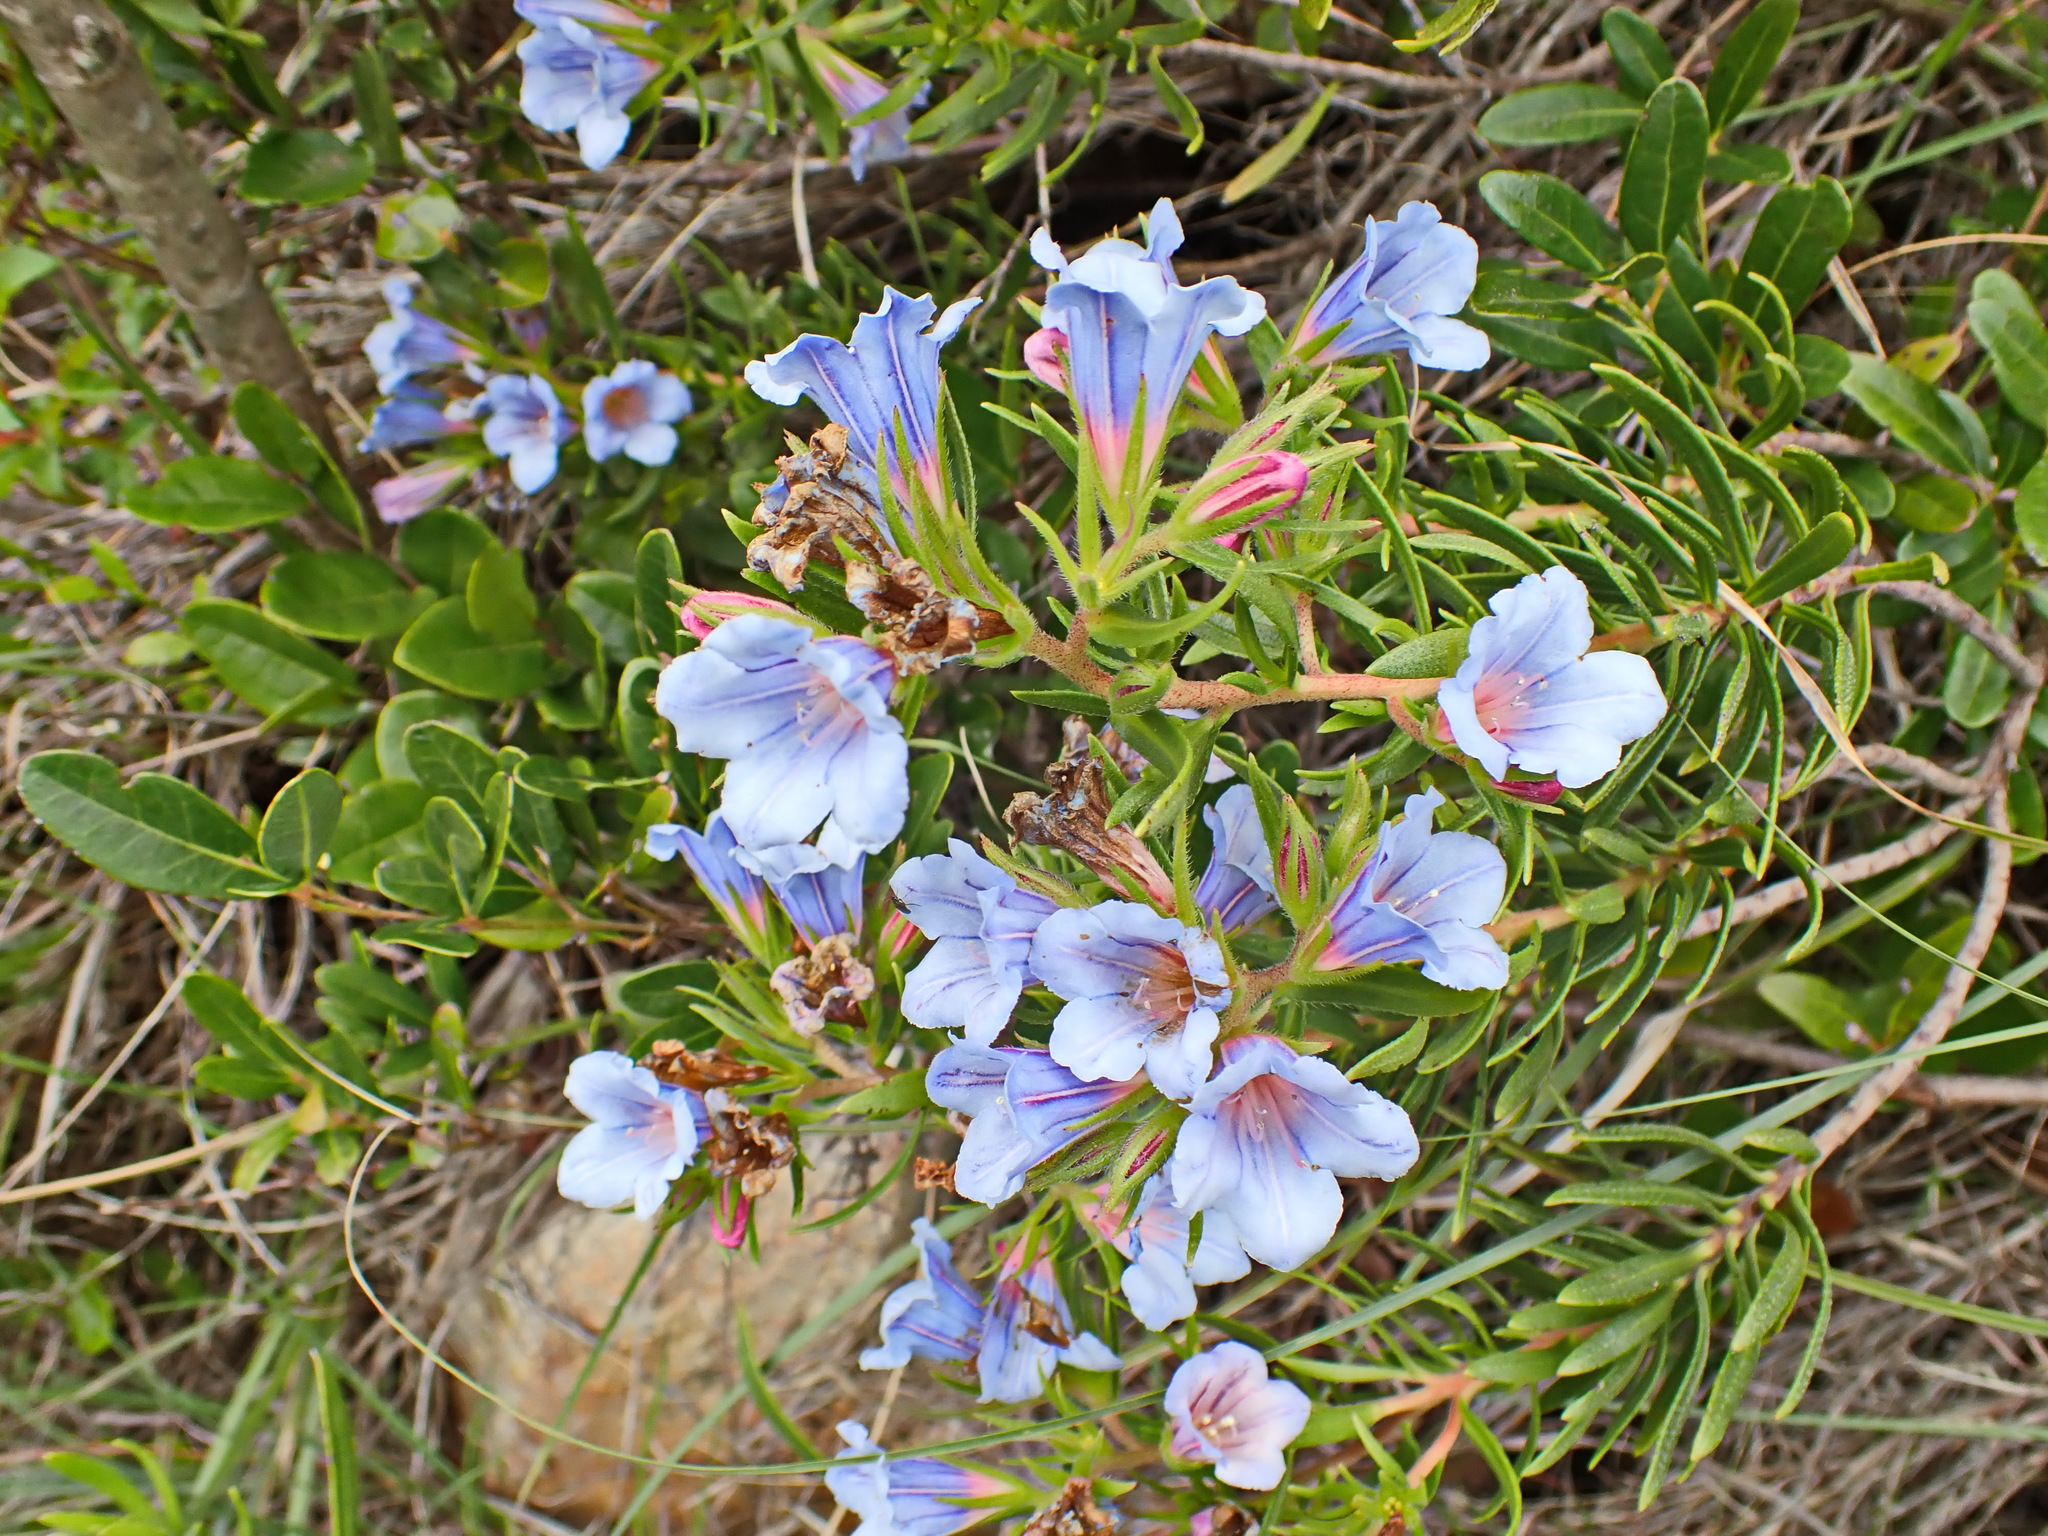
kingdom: Plantae
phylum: Tracheophyta
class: Magnoliopsida
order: Boraginales
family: Boraginaceae
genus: Lobostemon
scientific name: Lobostemon fruticosus
